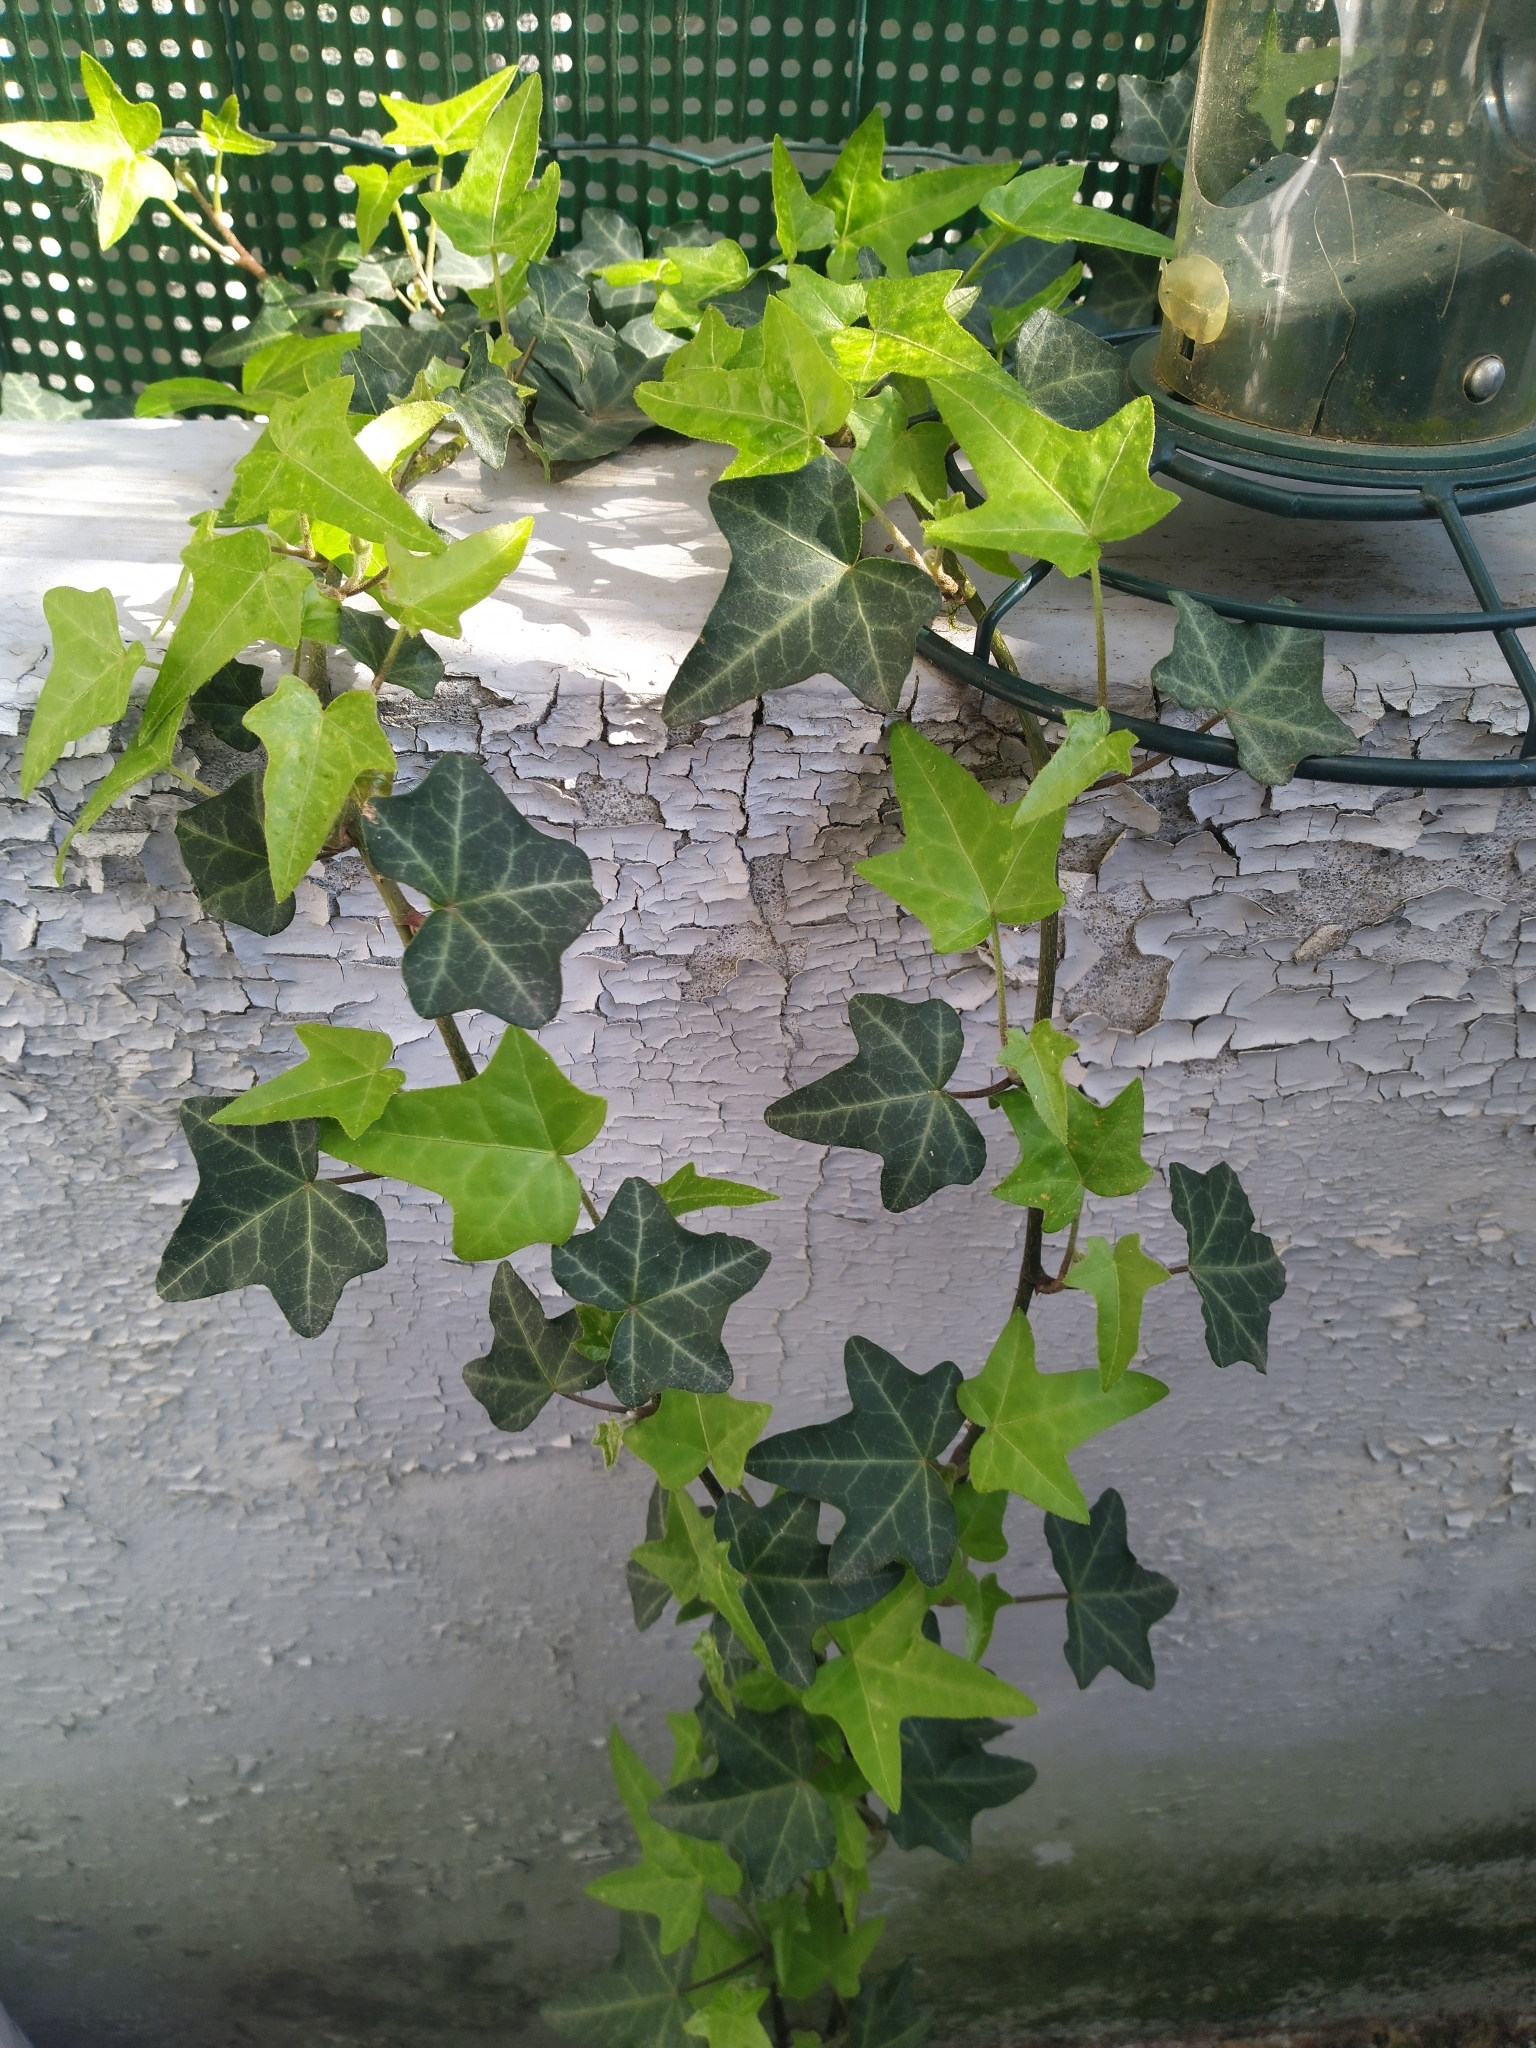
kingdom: Plantae
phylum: Tracheophyta
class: Magnoliopsida
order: Apiales
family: Araliaceae
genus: Hedera
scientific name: Hedera helix
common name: Ivy
